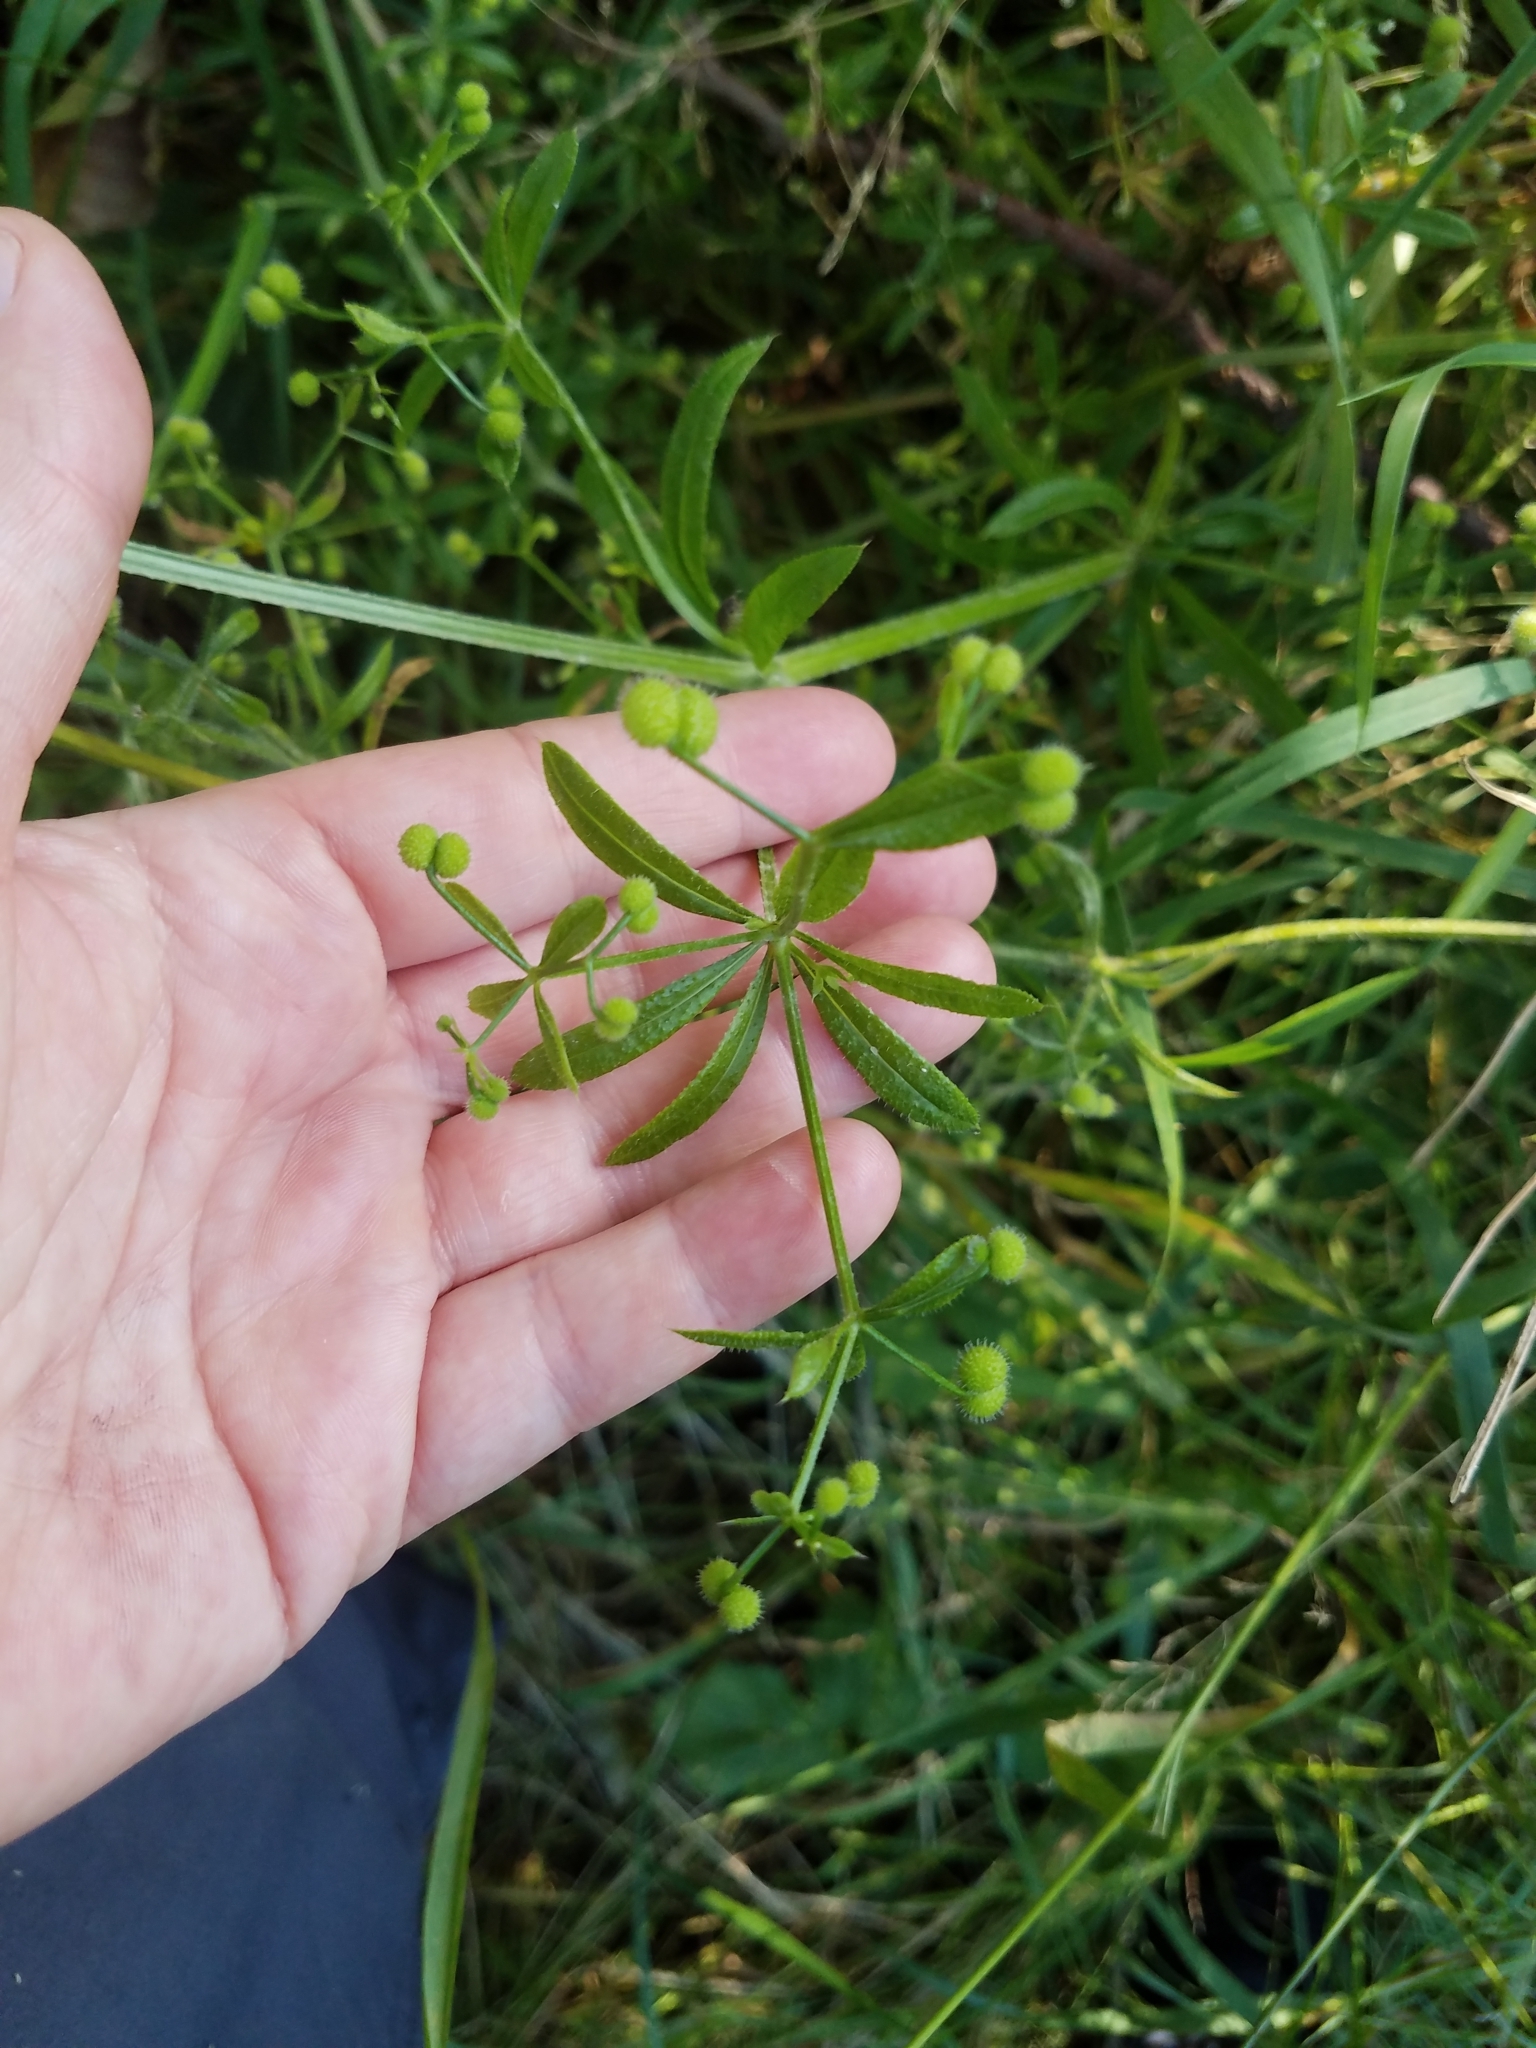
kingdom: Plantae
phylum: Tracheophyta
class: Magnoliopsida
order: Gentianales
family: Rubiaceae
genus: Galium
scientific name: Galium aparine
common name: Cleavers
